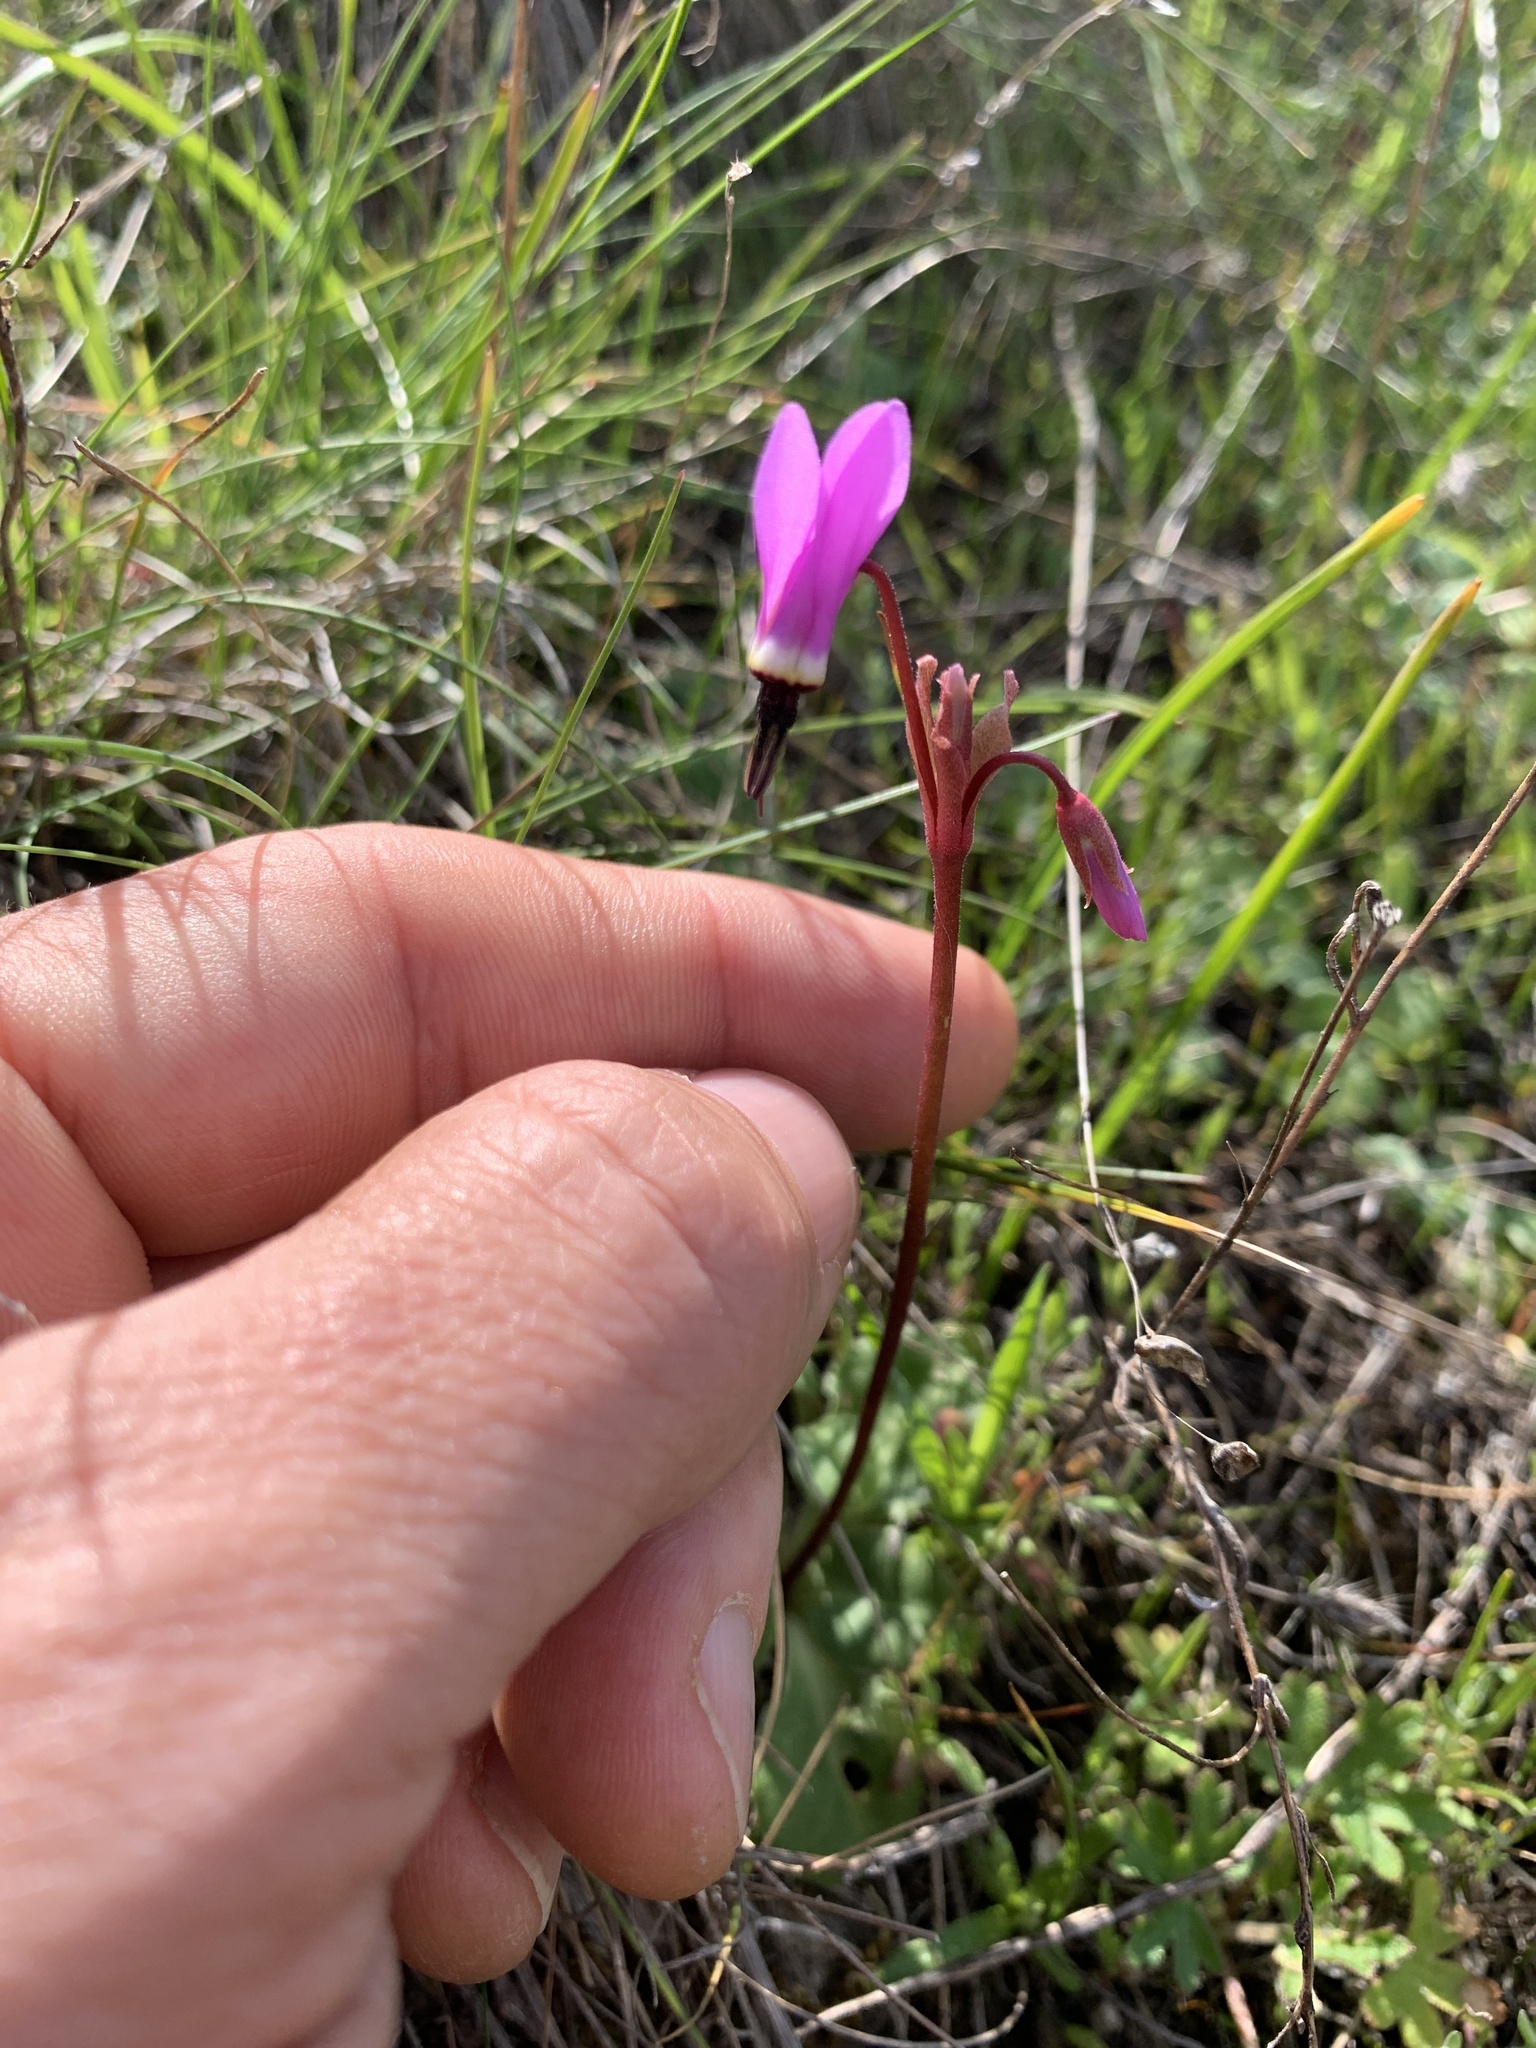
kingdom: Plantae
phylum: Tracheophyta
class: Magnoliopsida
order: Ericales
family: Primulaceae
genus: Dodecatheon
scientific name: Dodecatheon hendersonii
